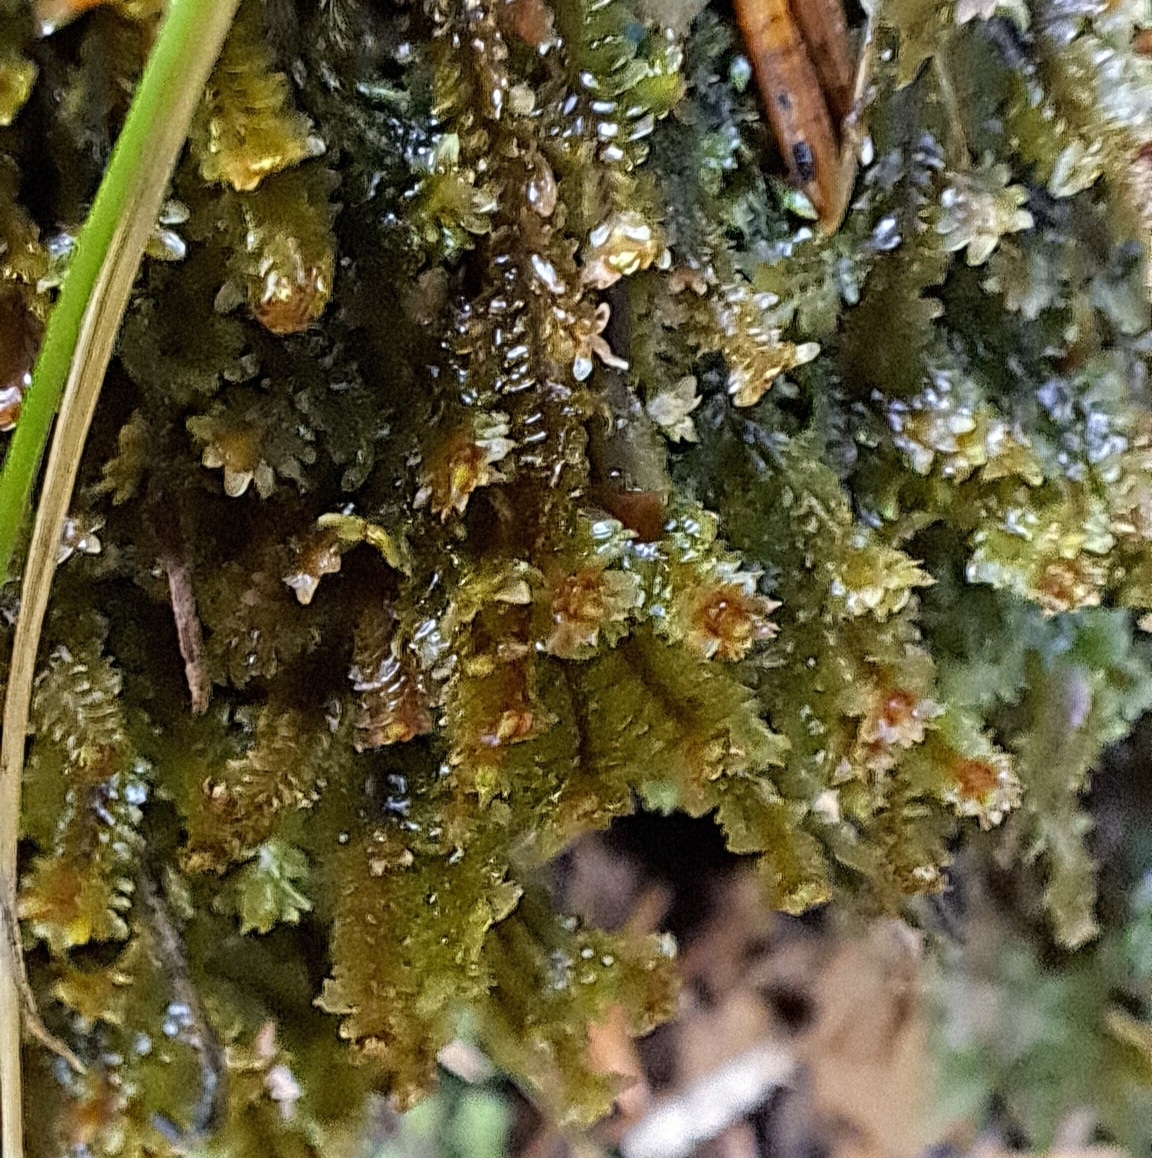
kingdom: Plantae
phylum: Marchantiophyta
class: Jungermanniopsida
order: Jungermanniales
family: Scapaniaceae
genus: Diplophyllum
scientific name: Diplophyllum albicans
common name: White earwort
